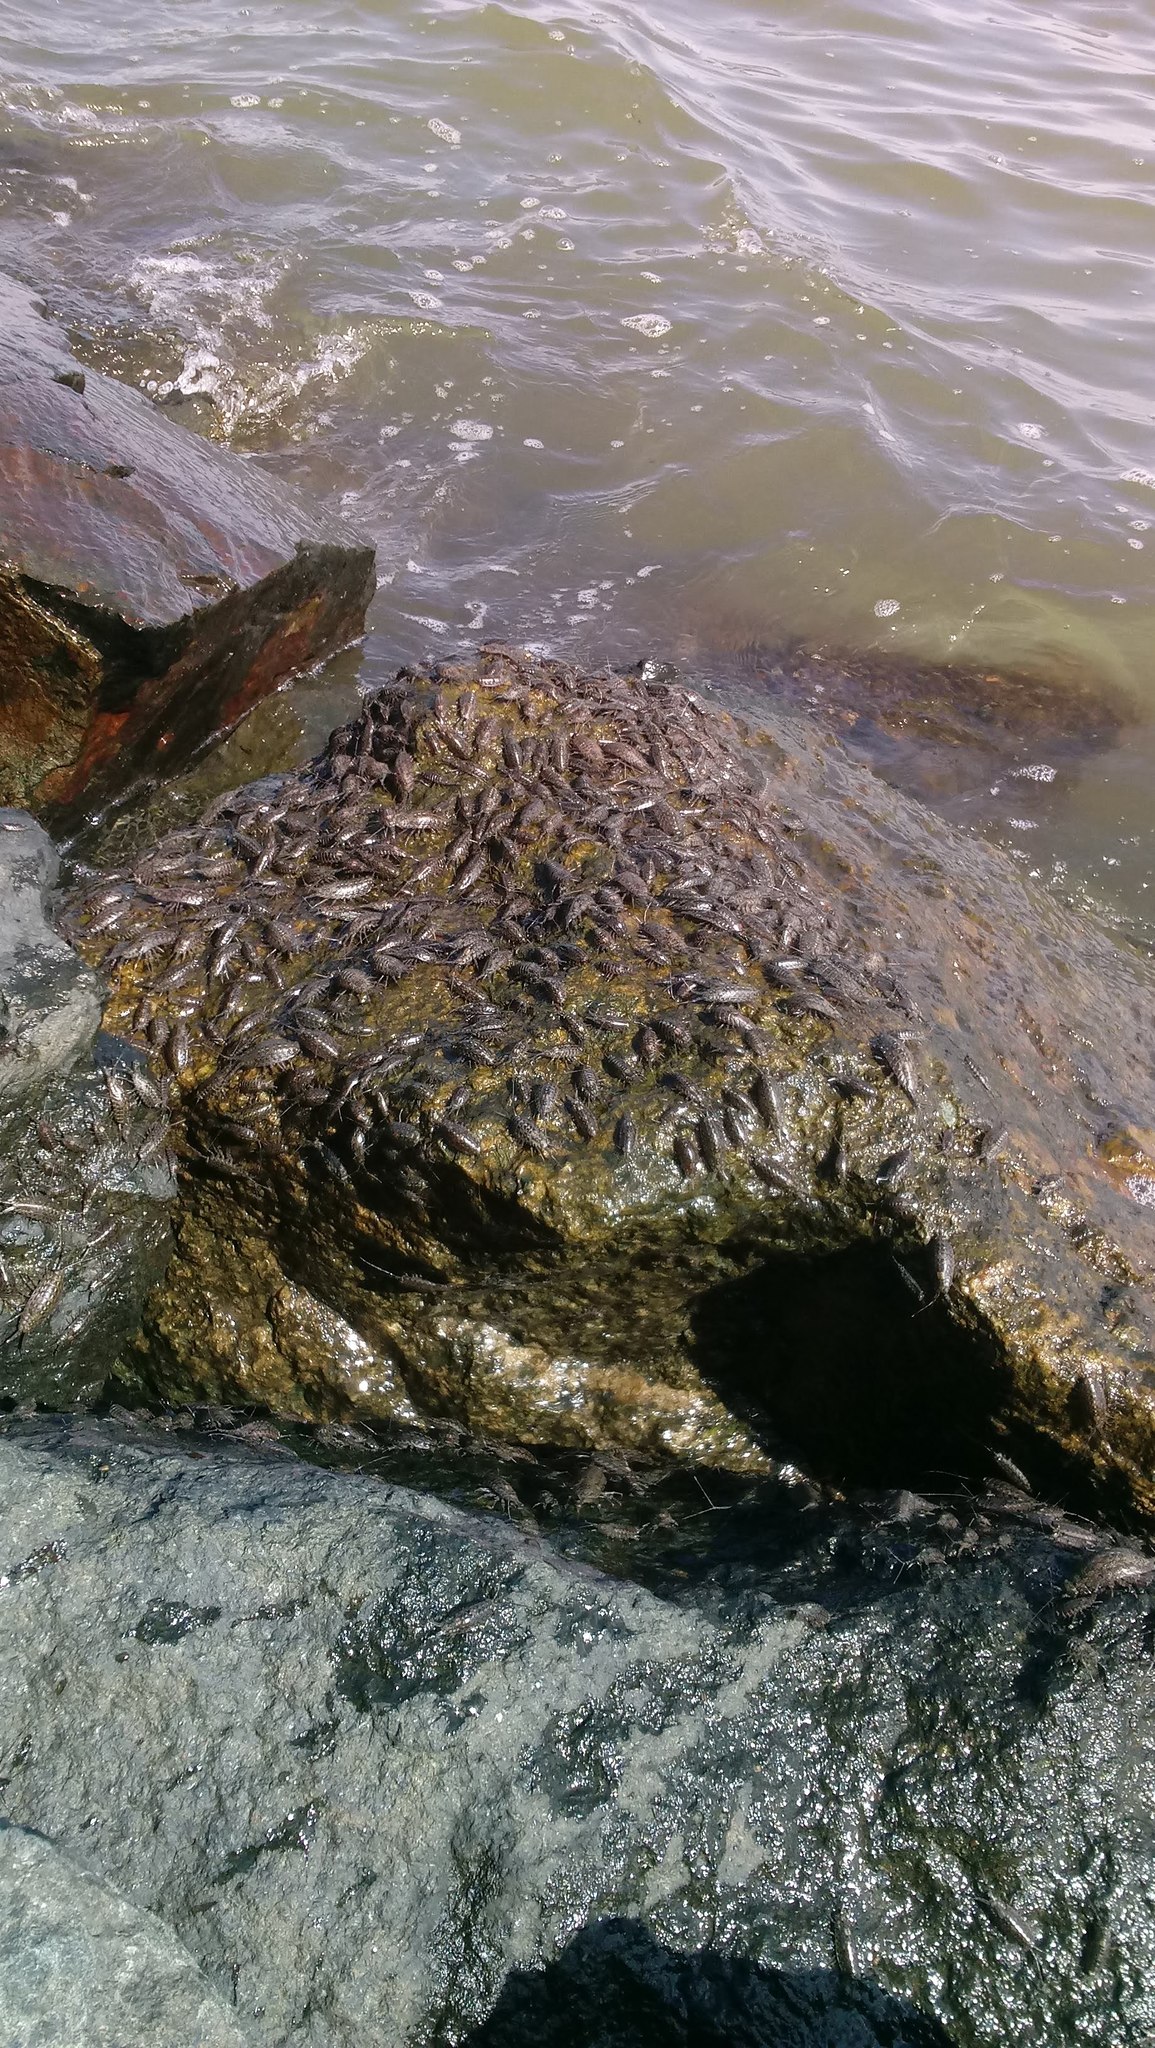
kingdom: Animalia
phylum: Arthropoda
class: Malacostraca
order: Isopoda
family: Ligiidae
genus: Ligia
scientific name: Ligia exotica
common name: Wharf roach
